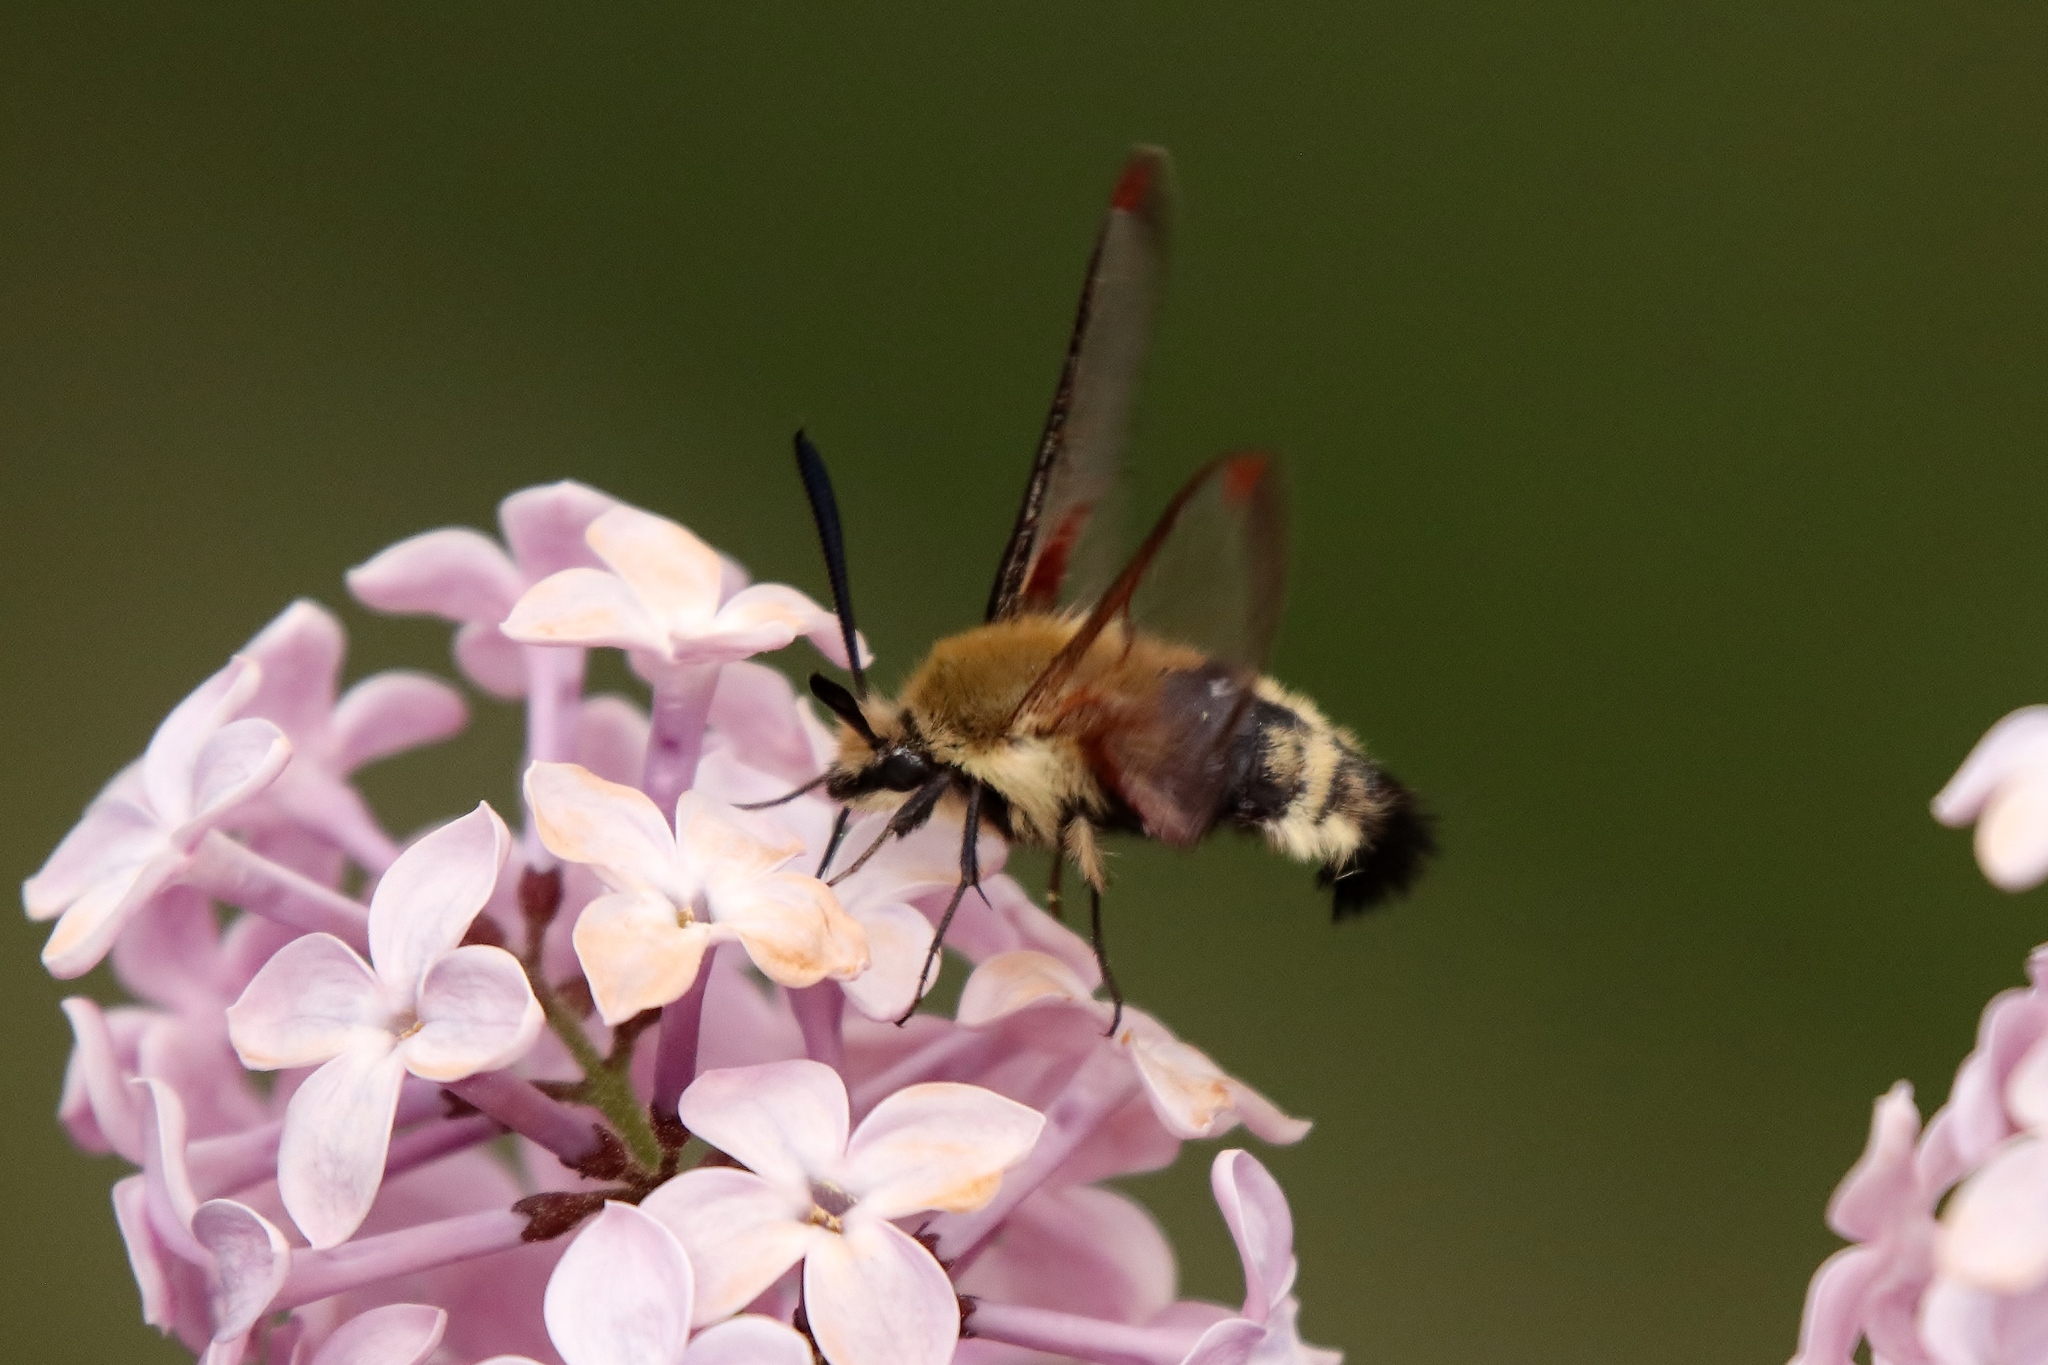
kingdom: Animalia
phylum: Arthropoda
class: Insecta
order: Lepidoptera
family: Sphingidae
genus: Hemaris
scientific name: Hemaris thetis
